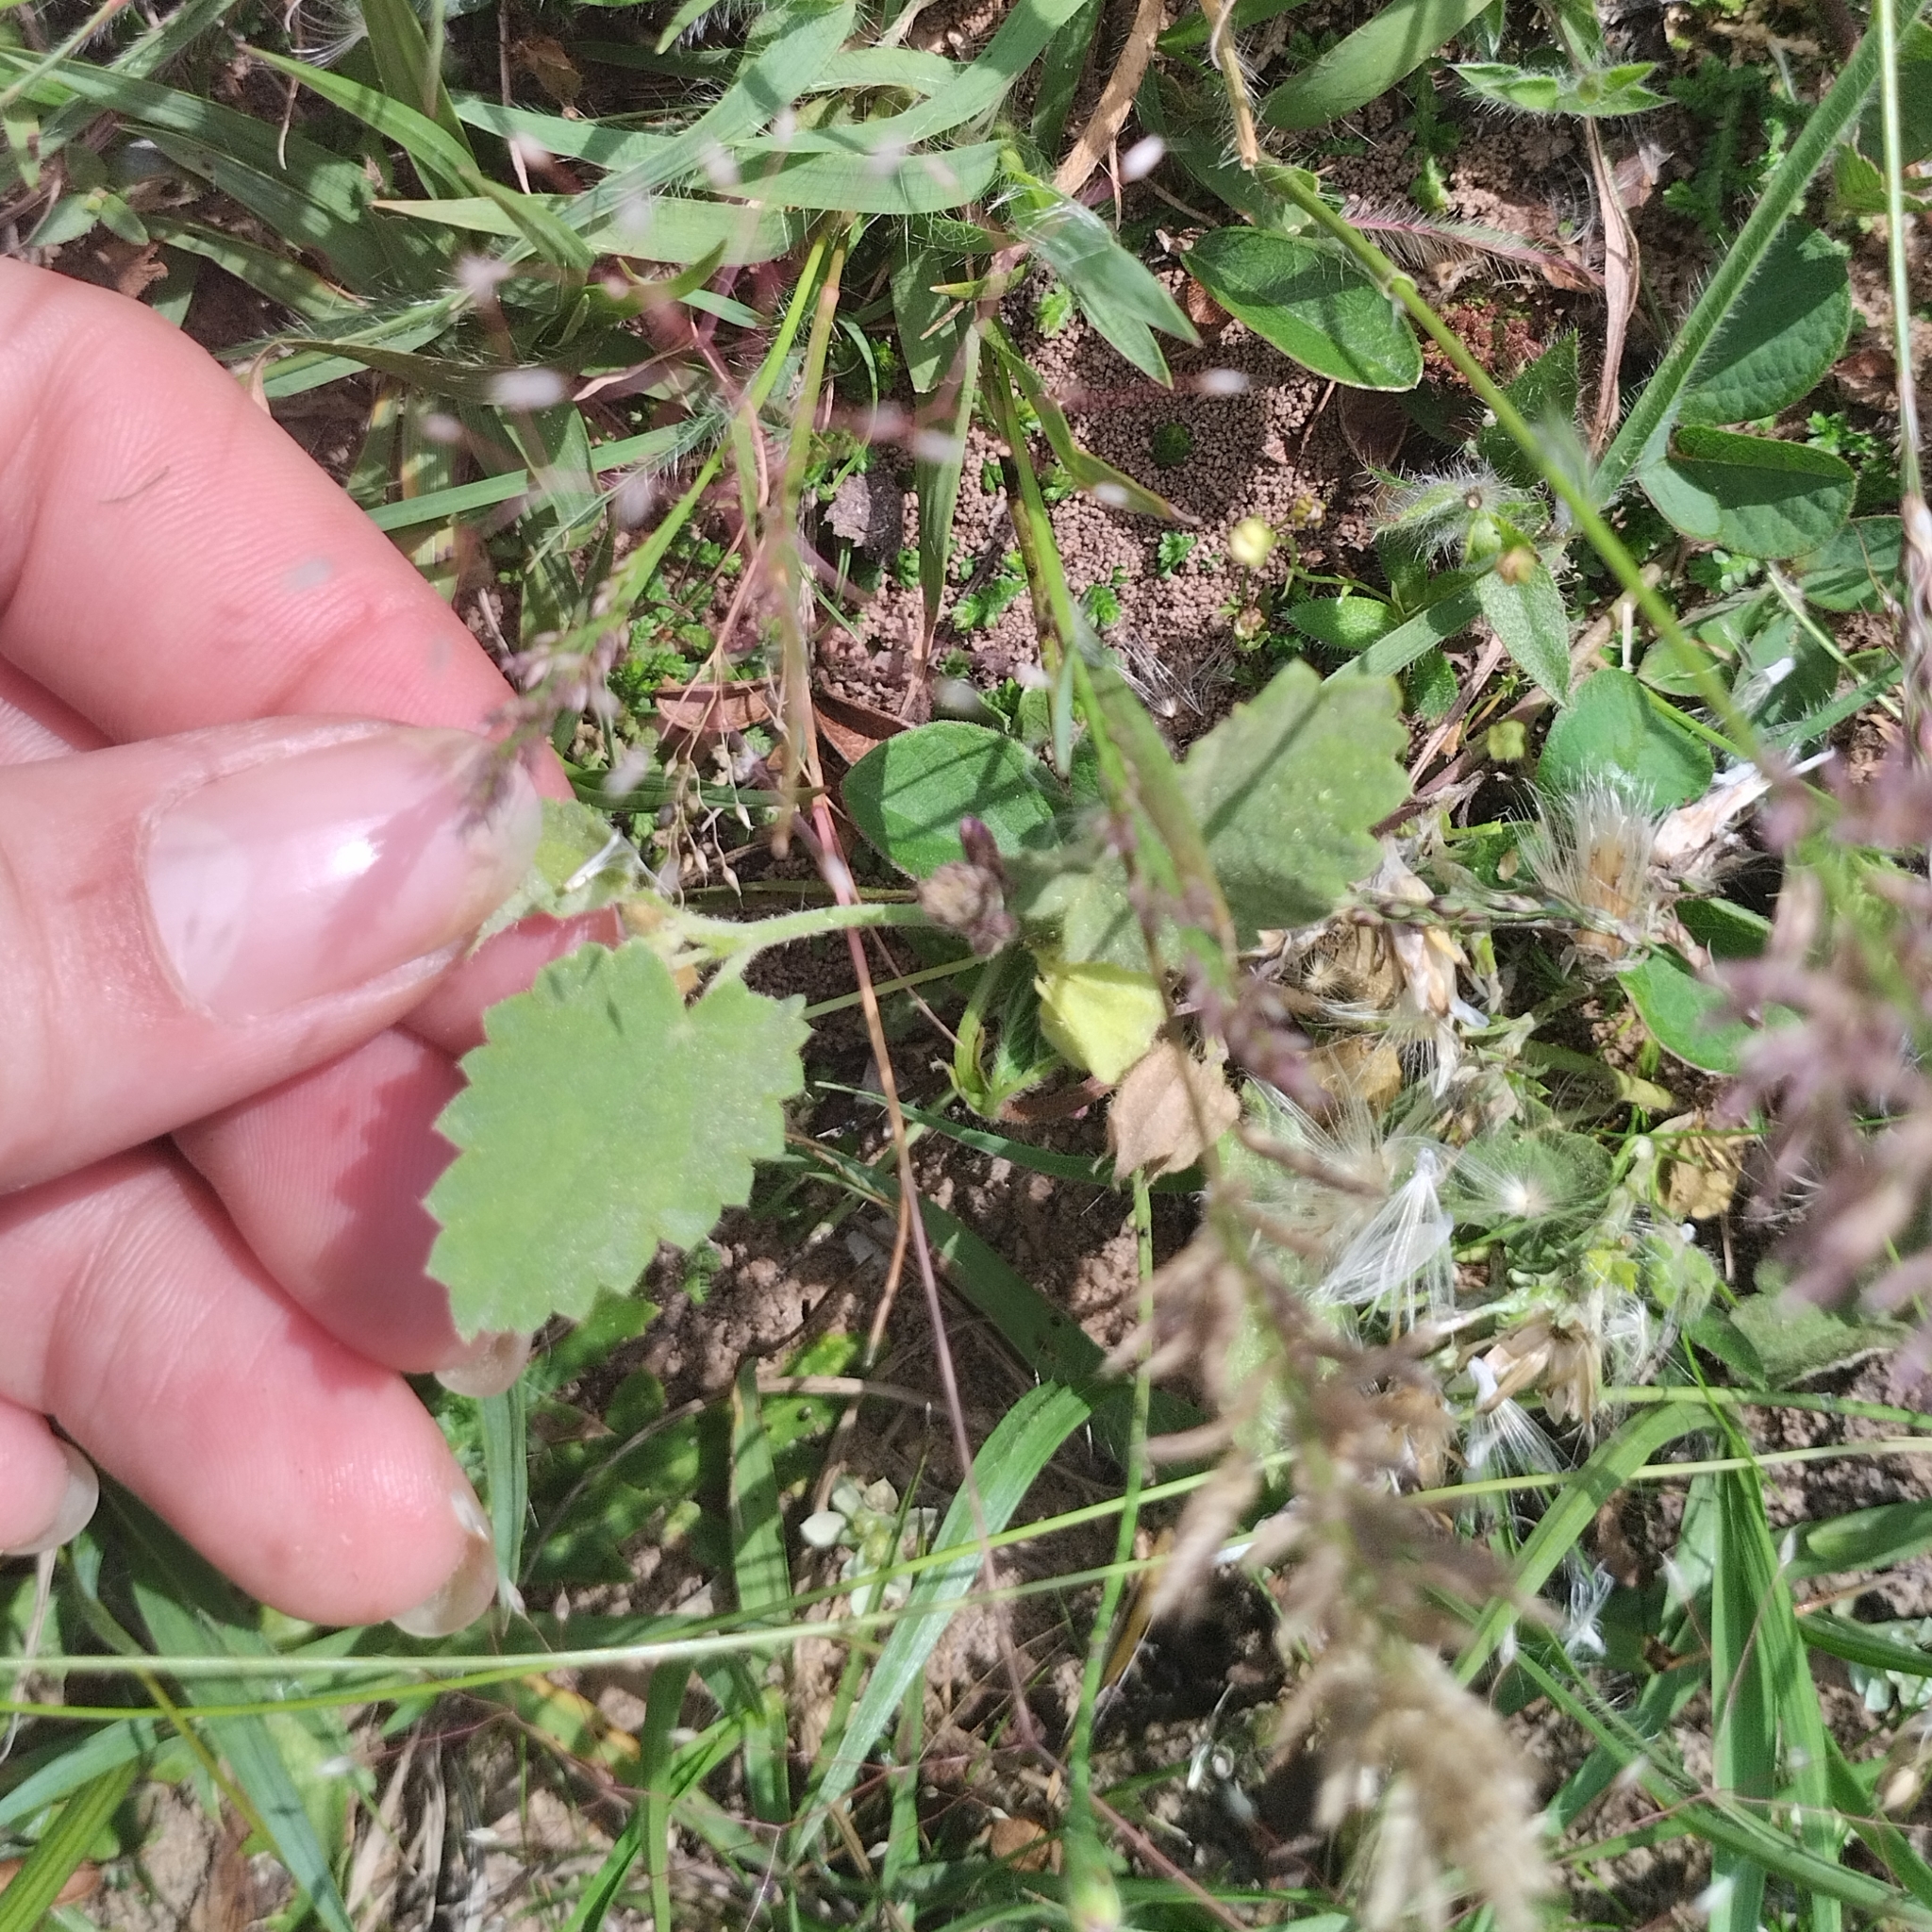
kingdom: Plantae
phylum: Tracheophyta
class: Magnoliopsida
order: Malvales
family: Malvaceae
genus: Krapovickasia
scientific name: Krapovickasia flavescens
